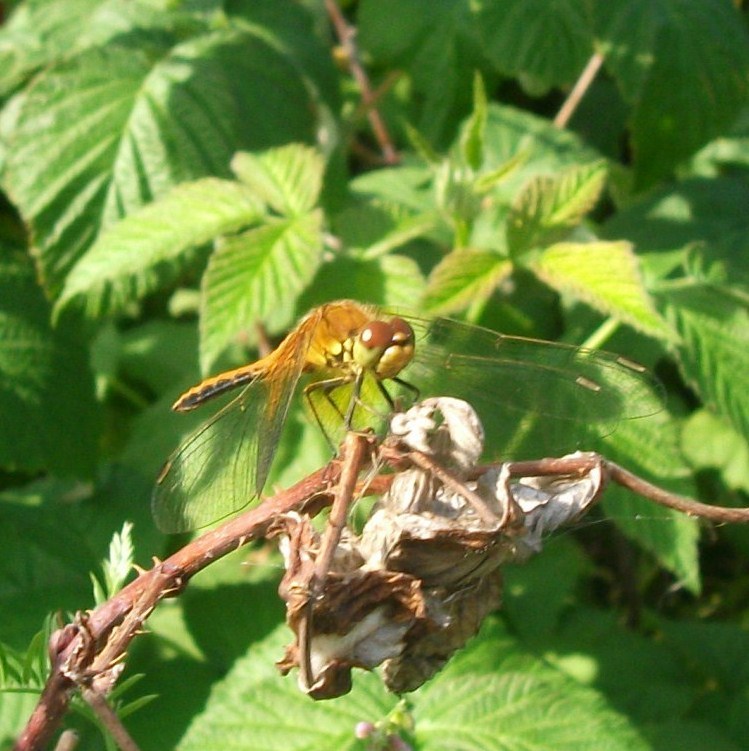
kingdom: Animalia
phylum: Arthropoda
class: Insecta
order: Odonata
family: Libellulidae
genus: Sympetrum
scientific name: Sympetrum flaveolum
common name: Yellow-winged darter
